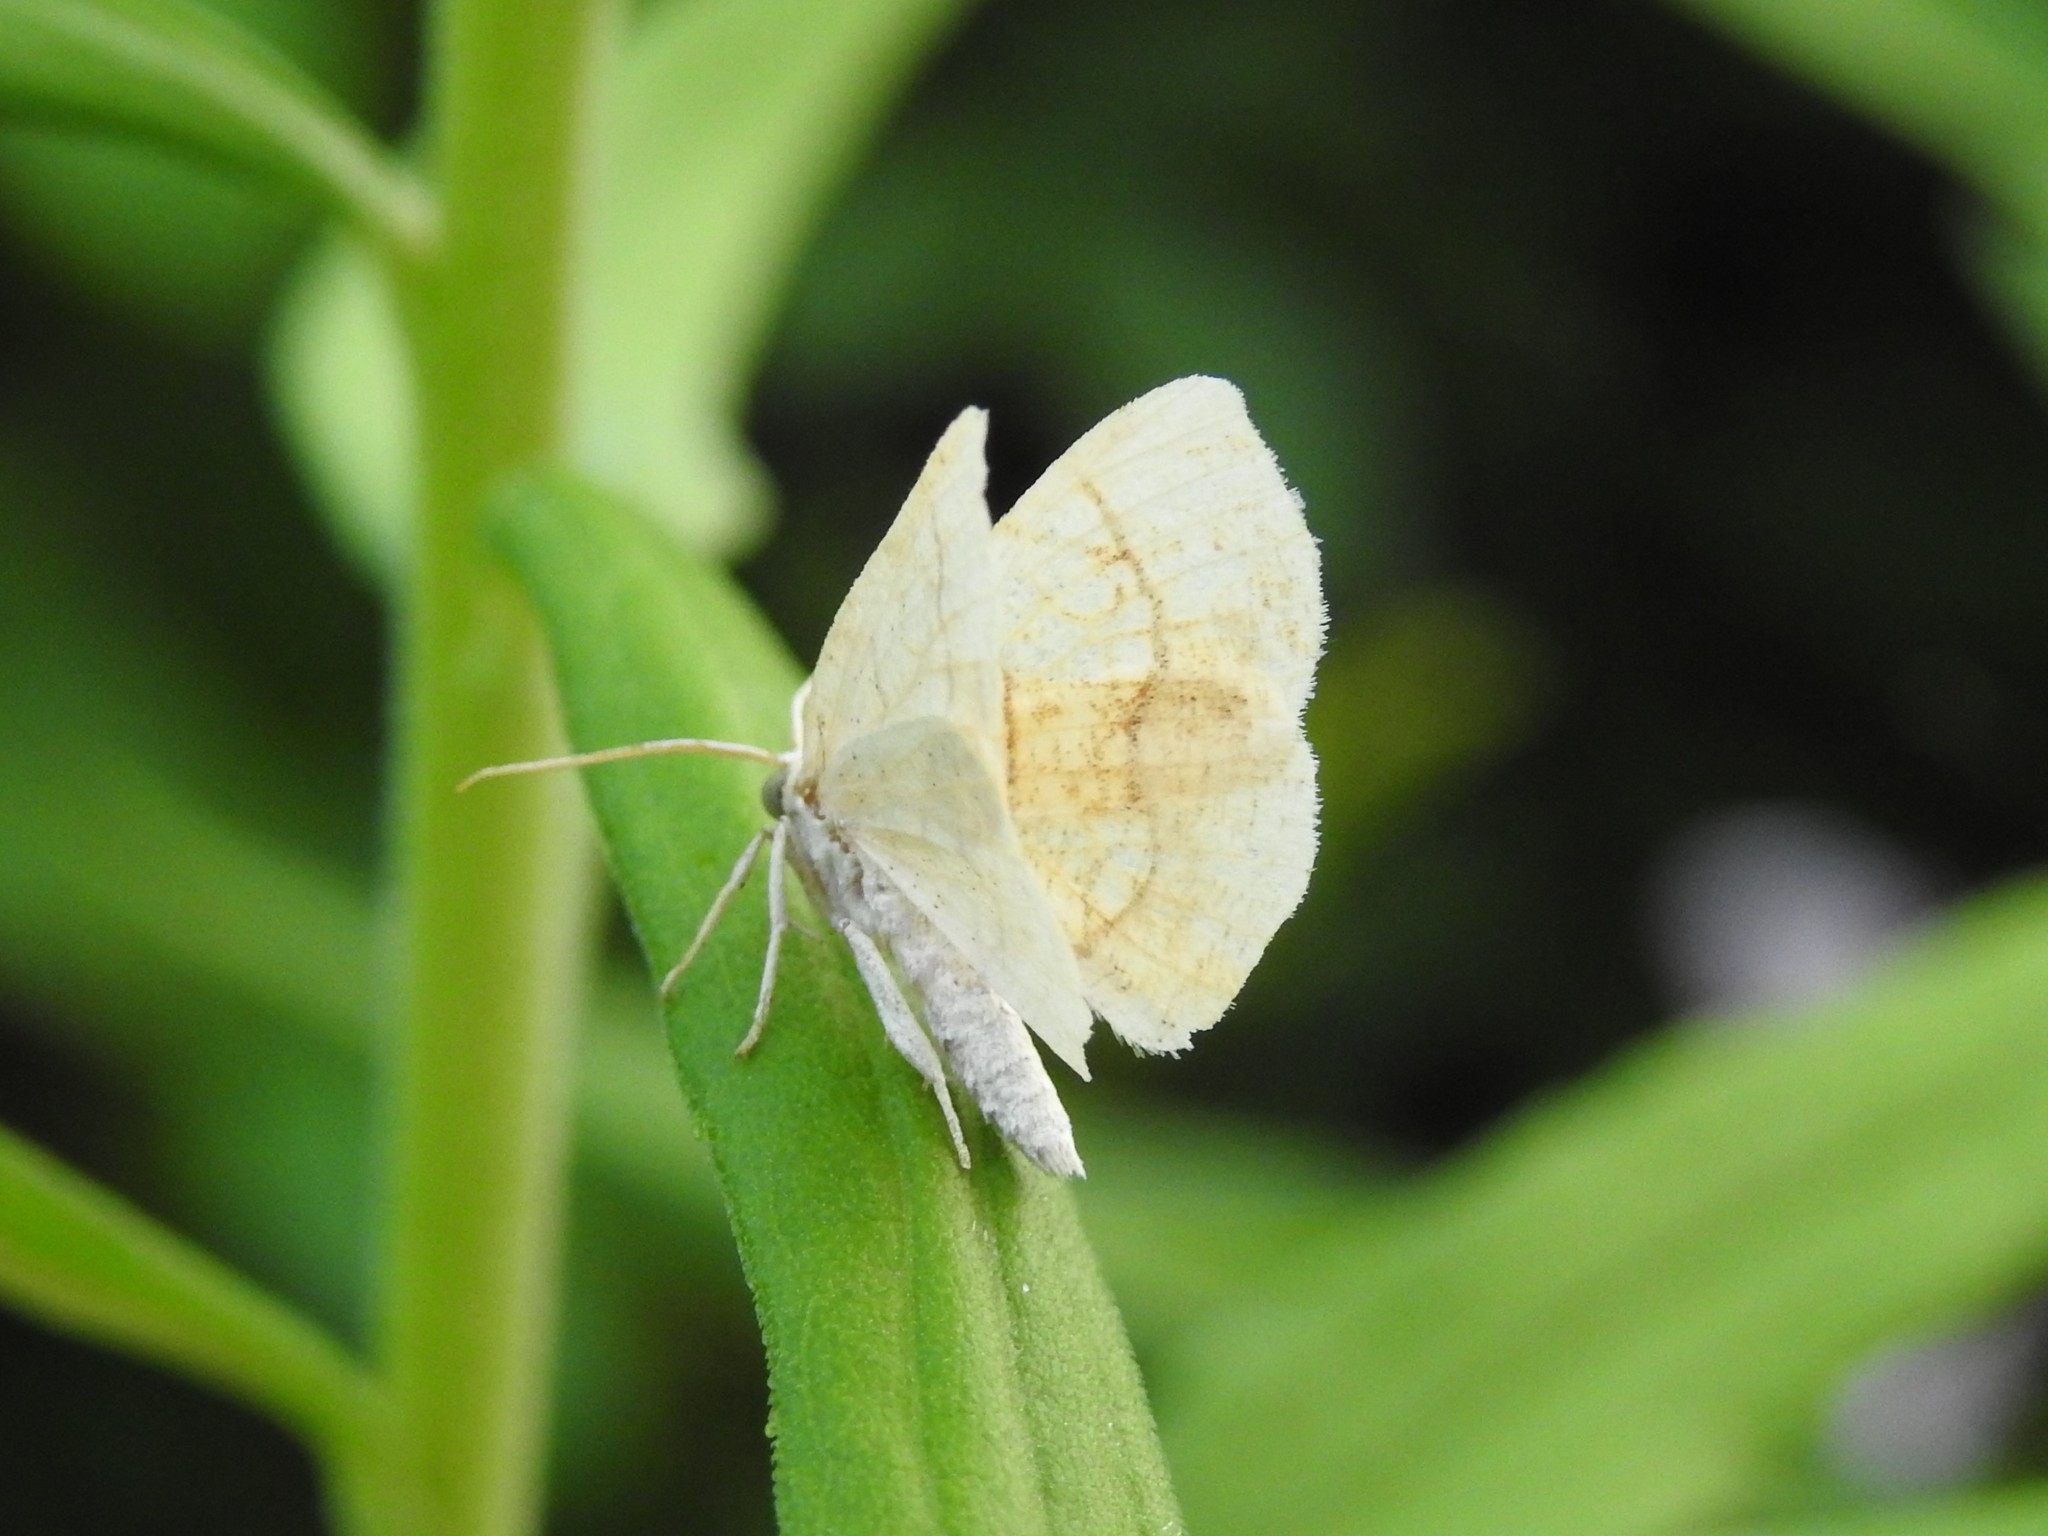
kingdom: Animalia
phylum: Arthropoda
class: Insecta
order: Lepidoptera
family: Geometridae
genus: Nematocampa
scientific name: Nematocampa resistaria
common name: Horned spanworm moth
